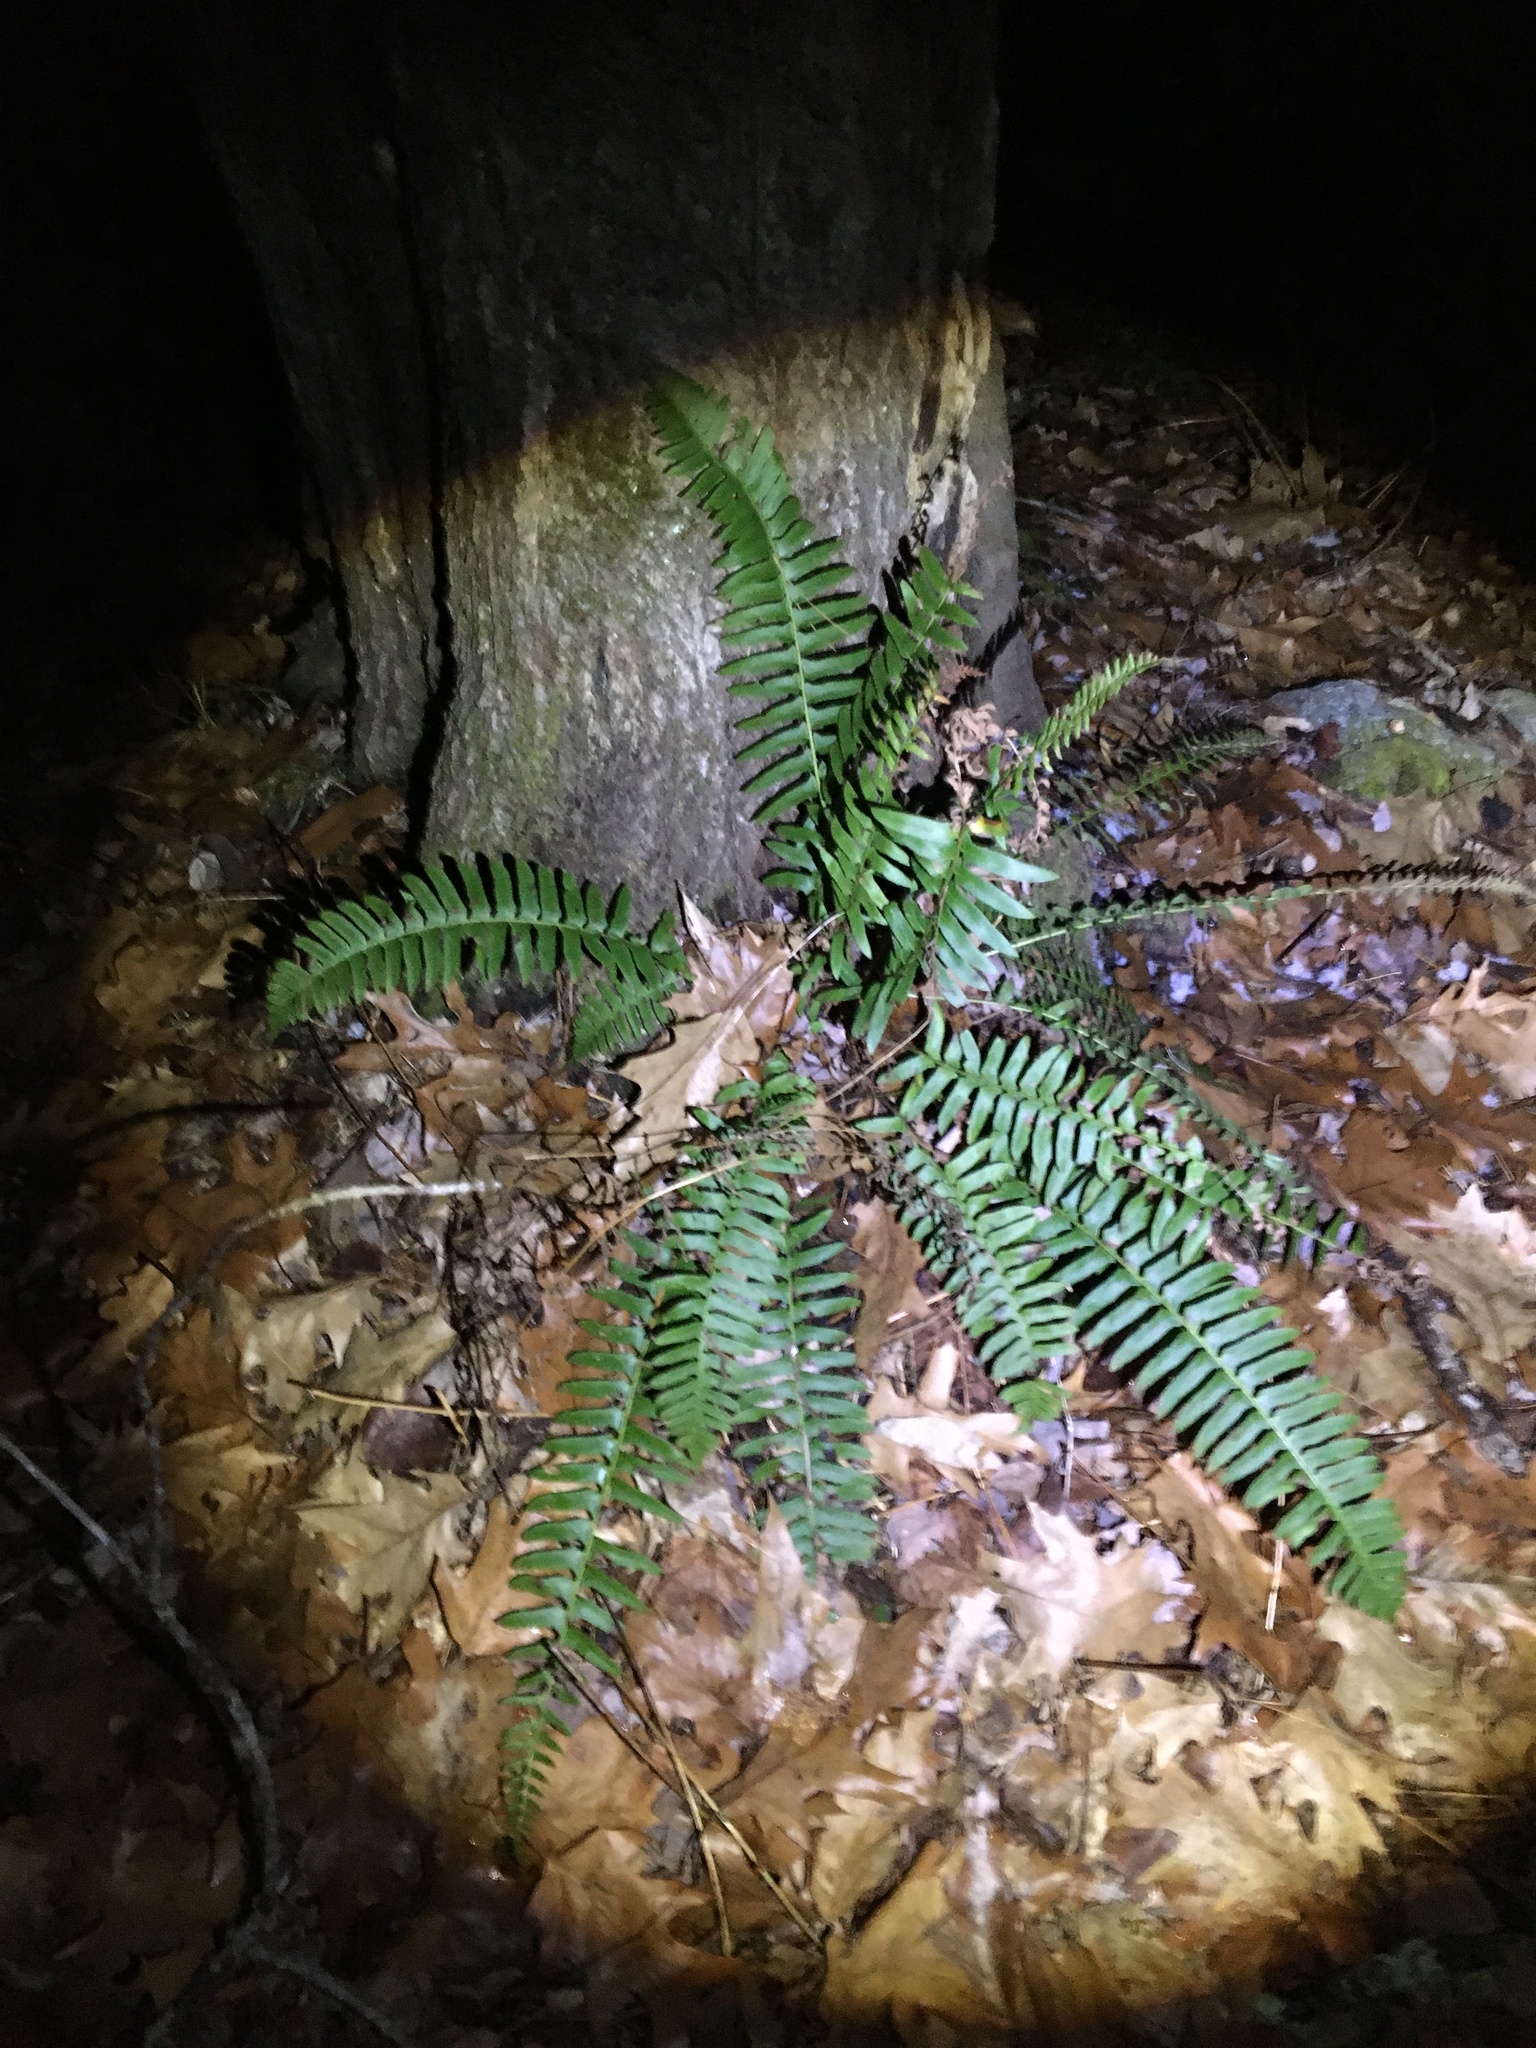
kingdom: Plantae
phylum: Tracheophyta
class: Polypodiopsida
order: Polypodiales
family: Dryopteridaceae
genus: Polystichum
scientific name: Polystichum acrostichoides
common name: Christmas fern
